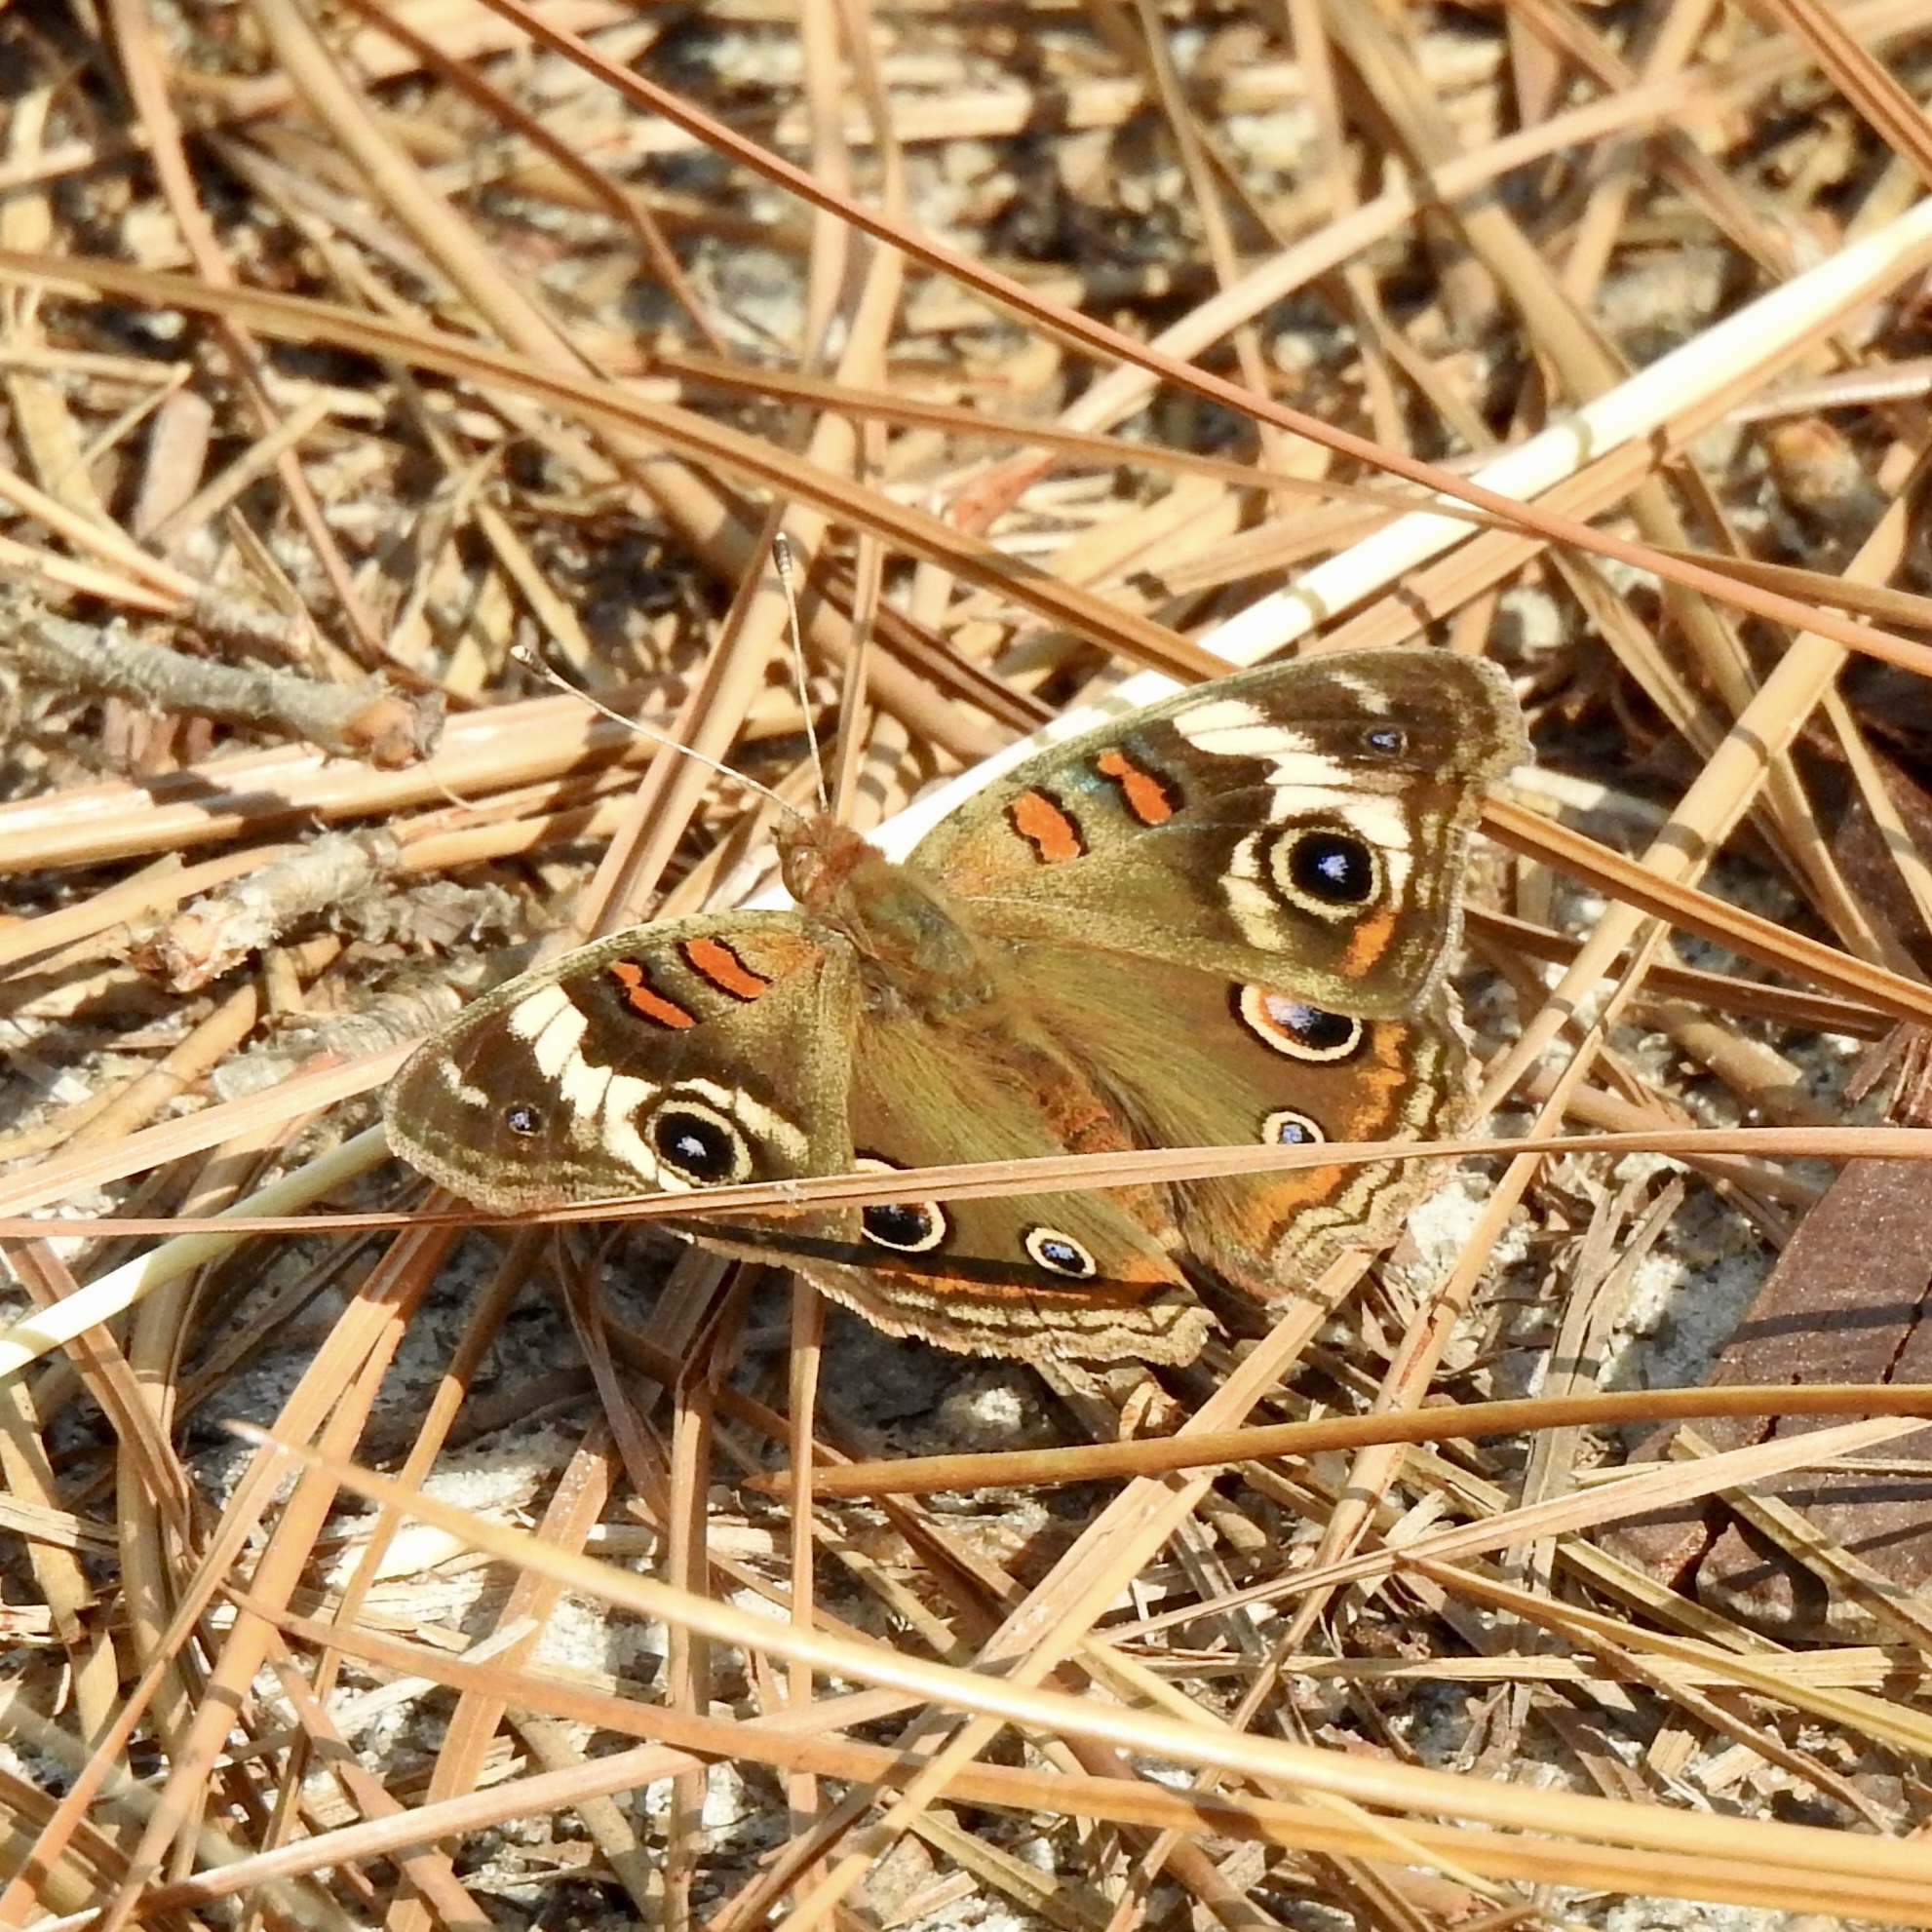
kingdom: Animalia
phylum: Arthropoda
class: Insecta
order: Lepidoptera
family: Nymphalidae
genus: Junonia
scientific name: Junonia coenia
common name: Common buckeye
